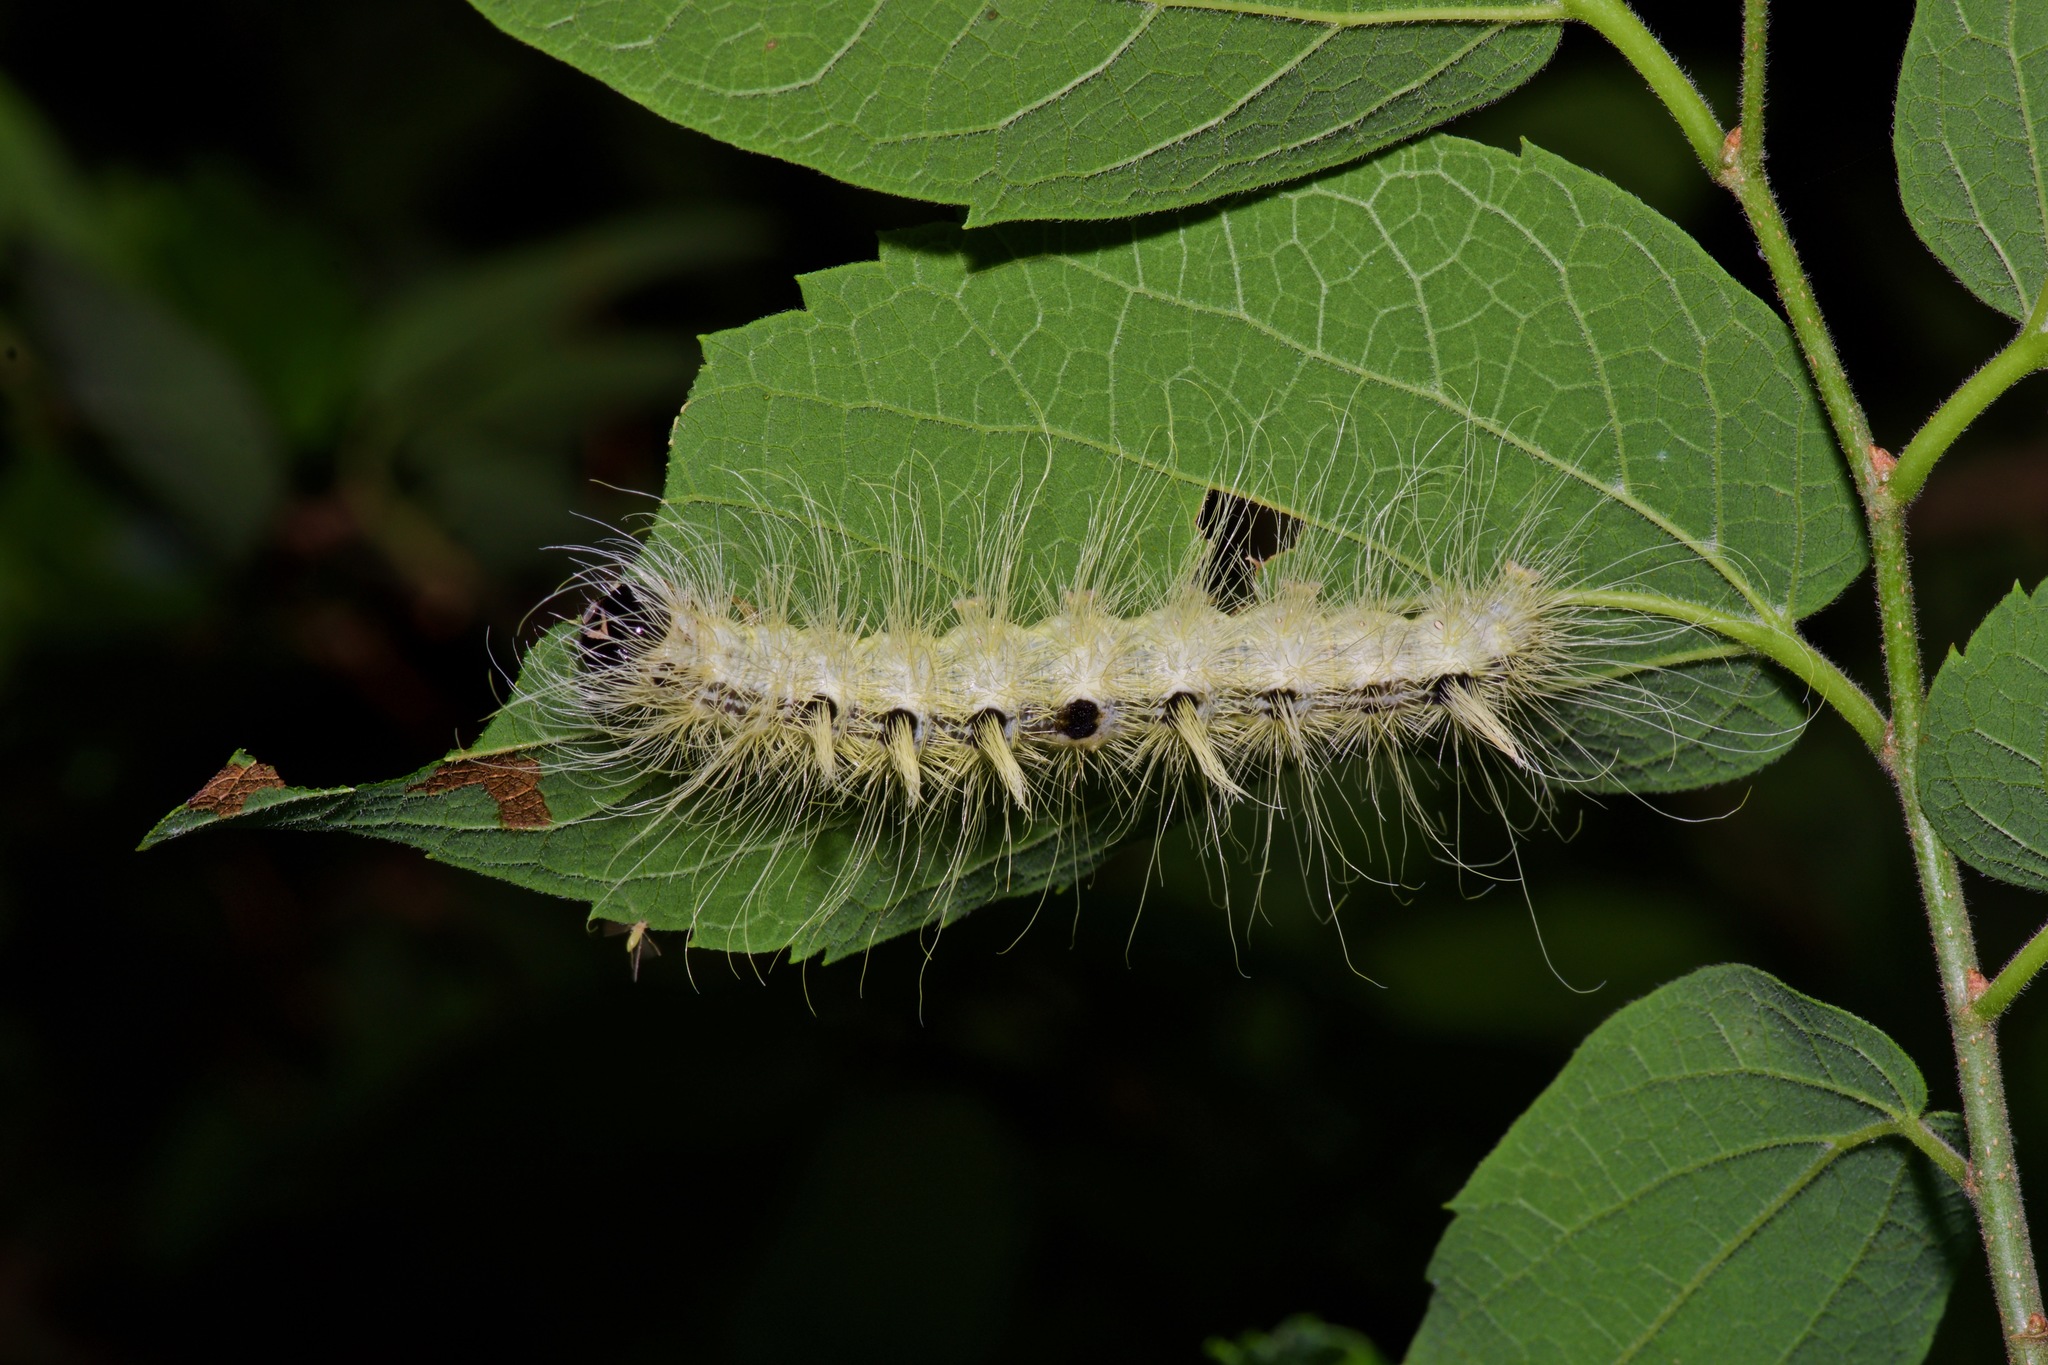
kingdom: Animalia
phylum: Arthropoda
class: Insecta
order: Lepidoptera
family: Noctuidae
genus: Acronicta
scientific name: Acronicta rubricoma
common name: Hackberry dagger
